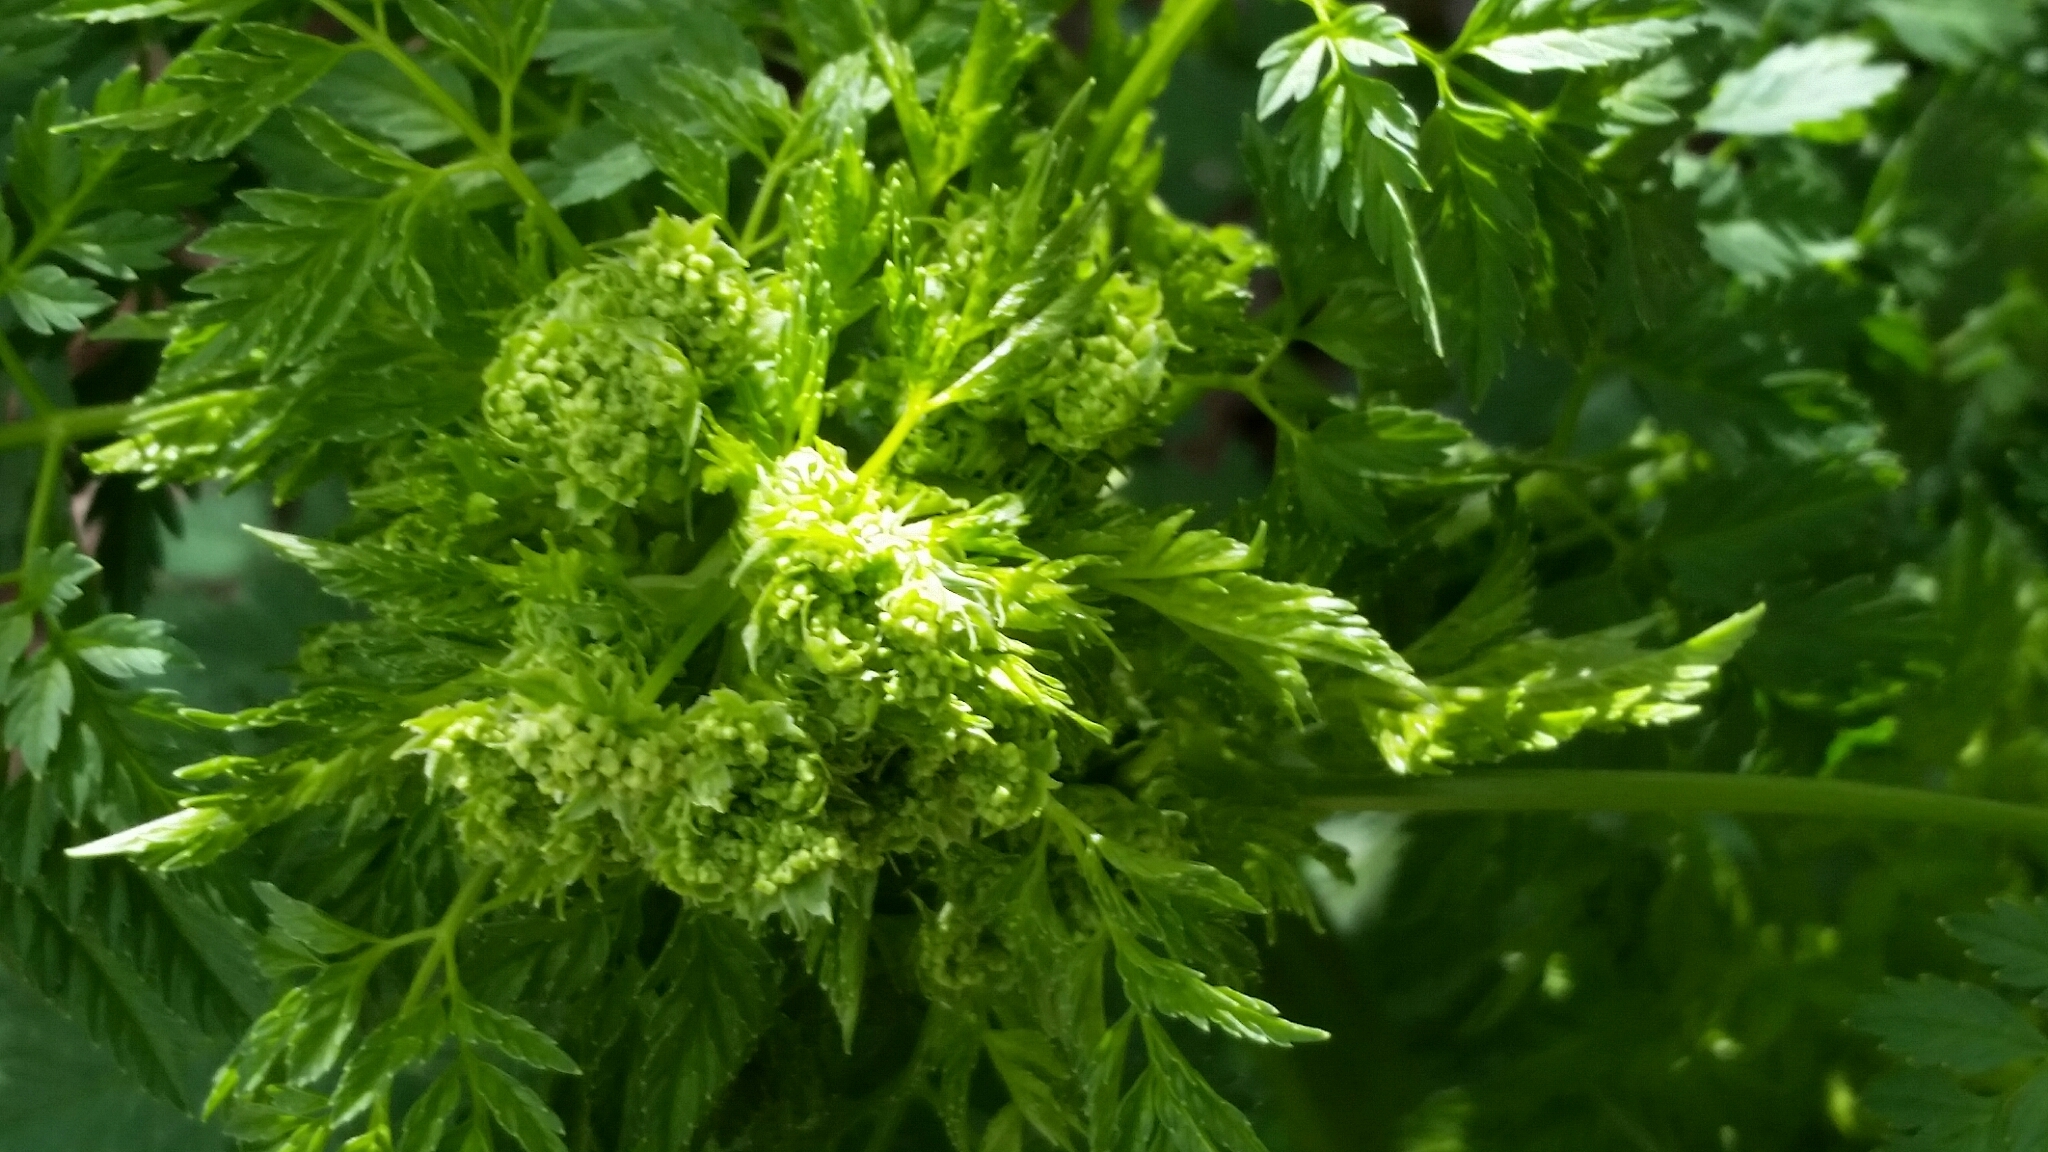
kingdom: Plantae
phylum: Tracheophyta
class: Magnoliopsida
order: Apiales
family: Apiaceae
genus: Conium
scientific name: Conium maculatum
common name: Hemlock
